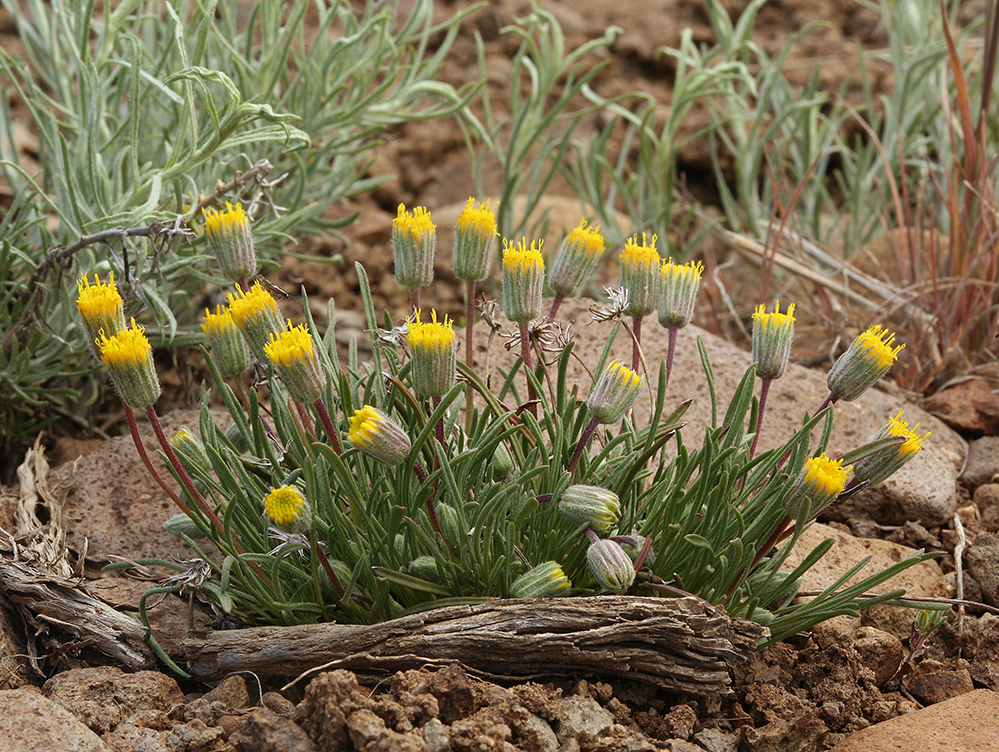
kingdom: Plantae
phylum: Tracheophyta
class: Magnoliopsida
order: Asterales
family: Asteraceae
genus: Erigeron
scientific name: Erigeron bloomeri
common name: Bloomer's fleabane
